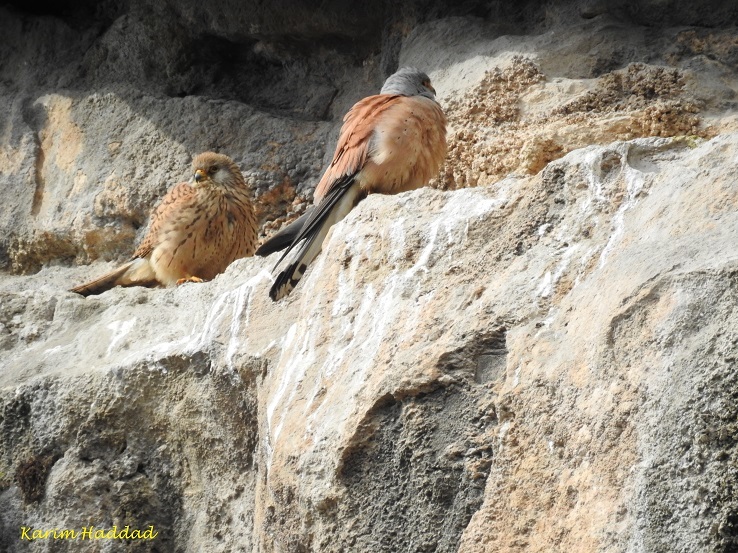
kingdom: Animalia
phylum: Chordata
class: Aves
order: Falconiformes
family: Falconidae
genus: Falco
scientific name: Falco naumanni
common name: Lesser kestrel
